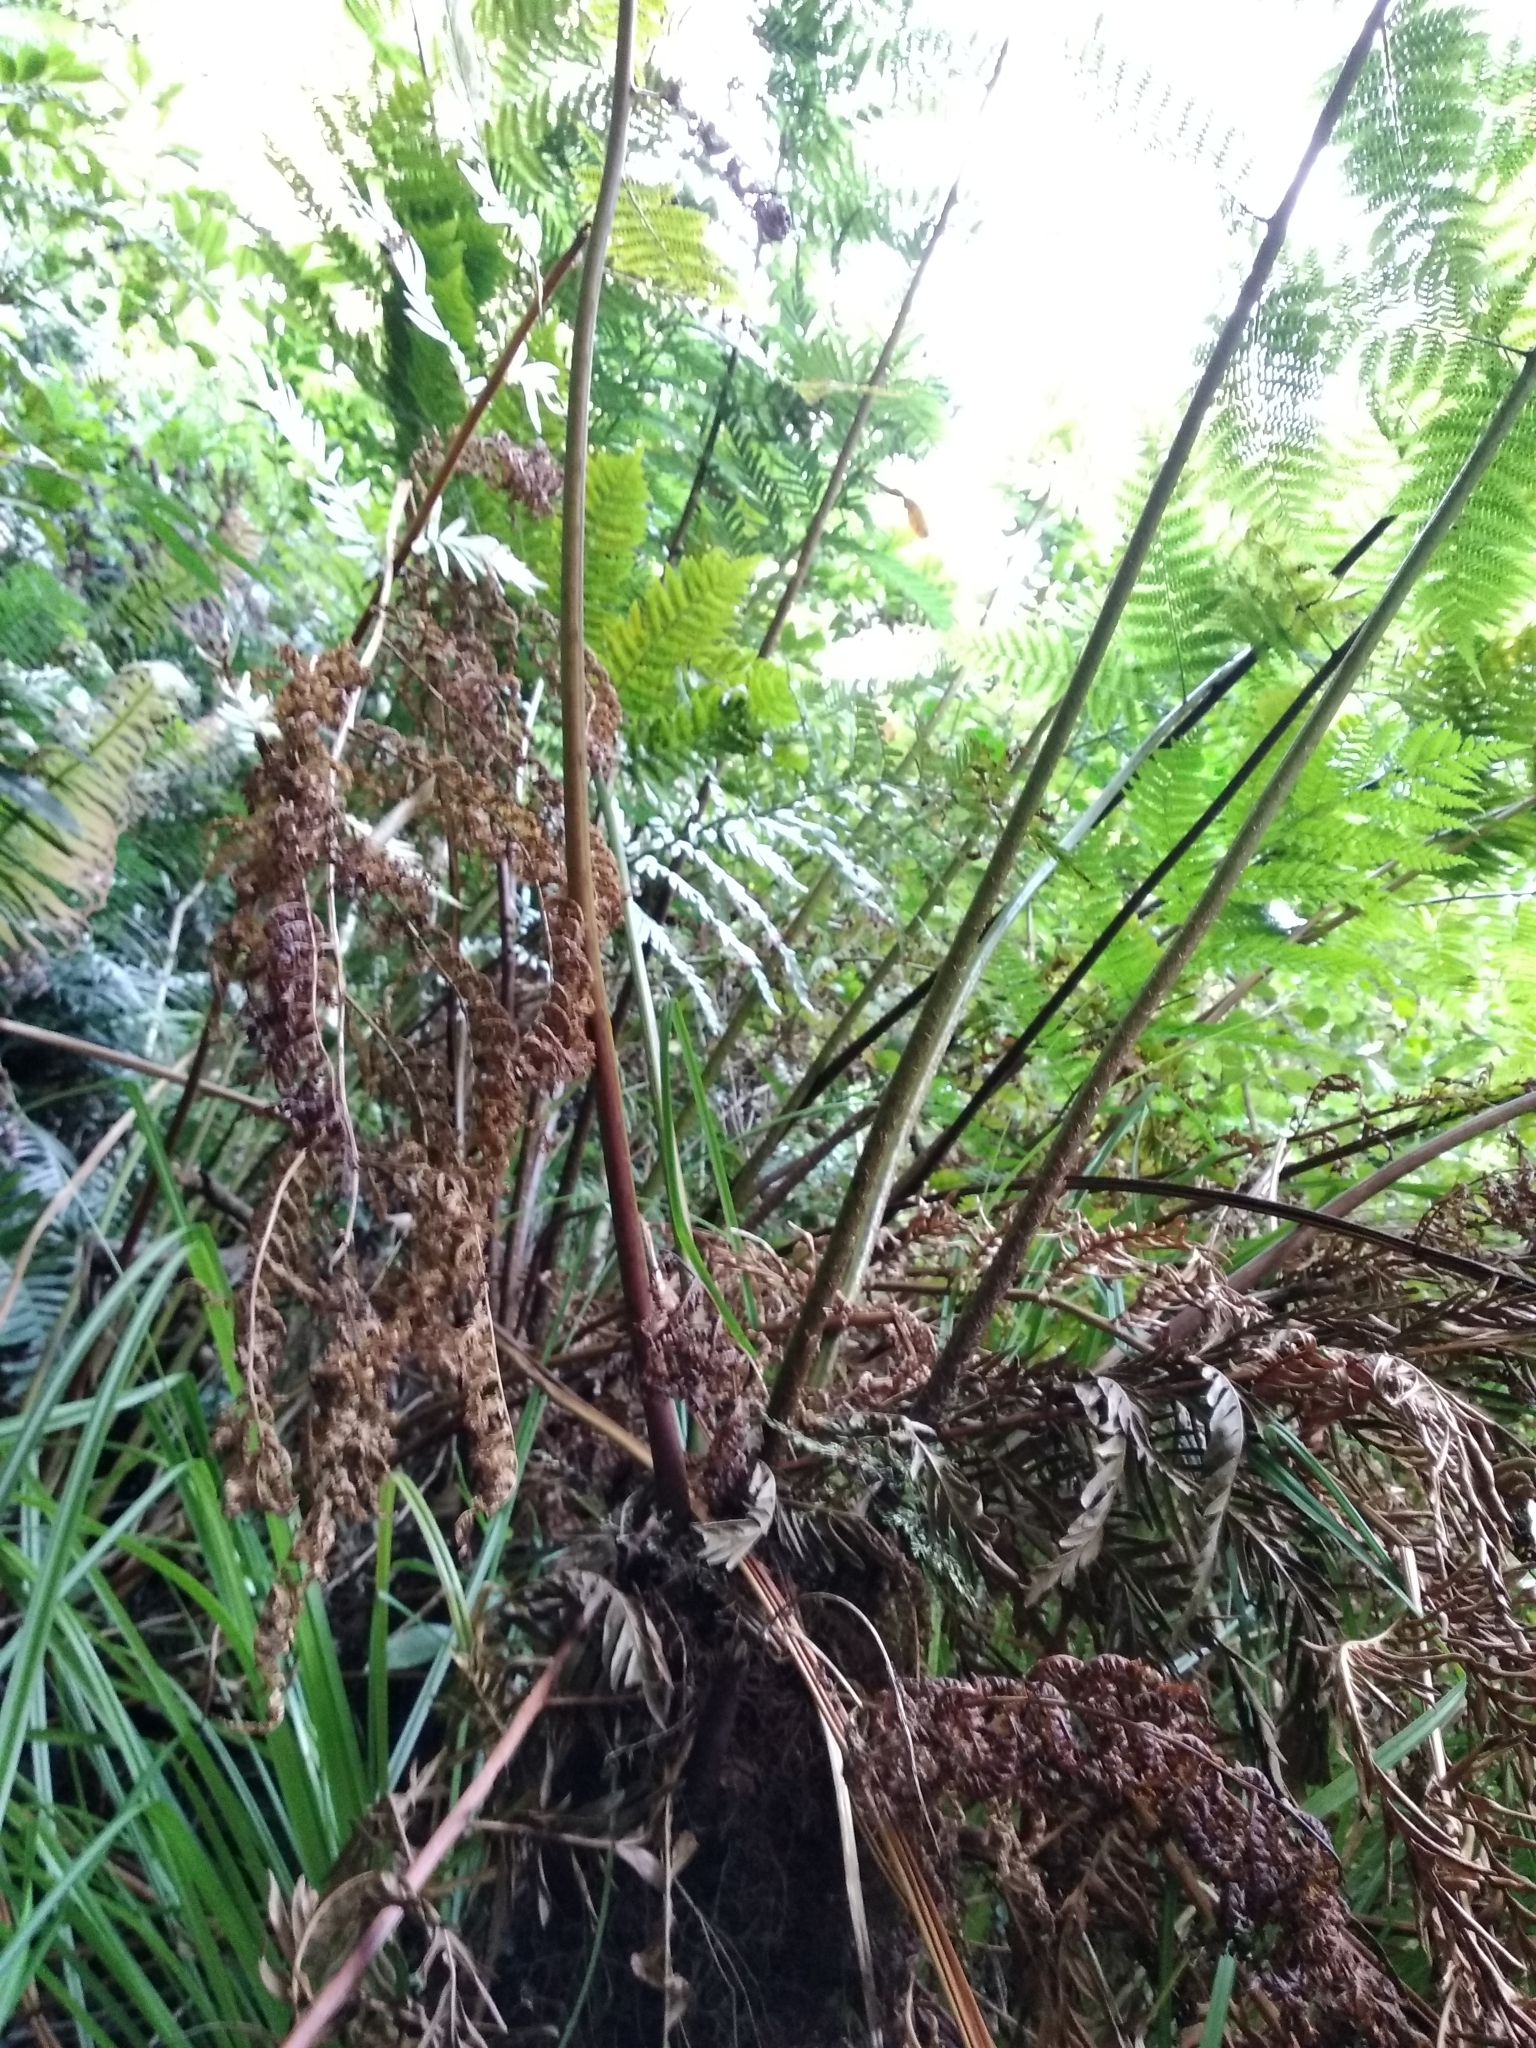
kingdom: Plantae
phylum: Tracheophyta
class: Polypodiopsida
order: Cyatheales
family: Cyatheaceae
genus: Gymnosphaera
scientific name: Gymnosphaera capensis
